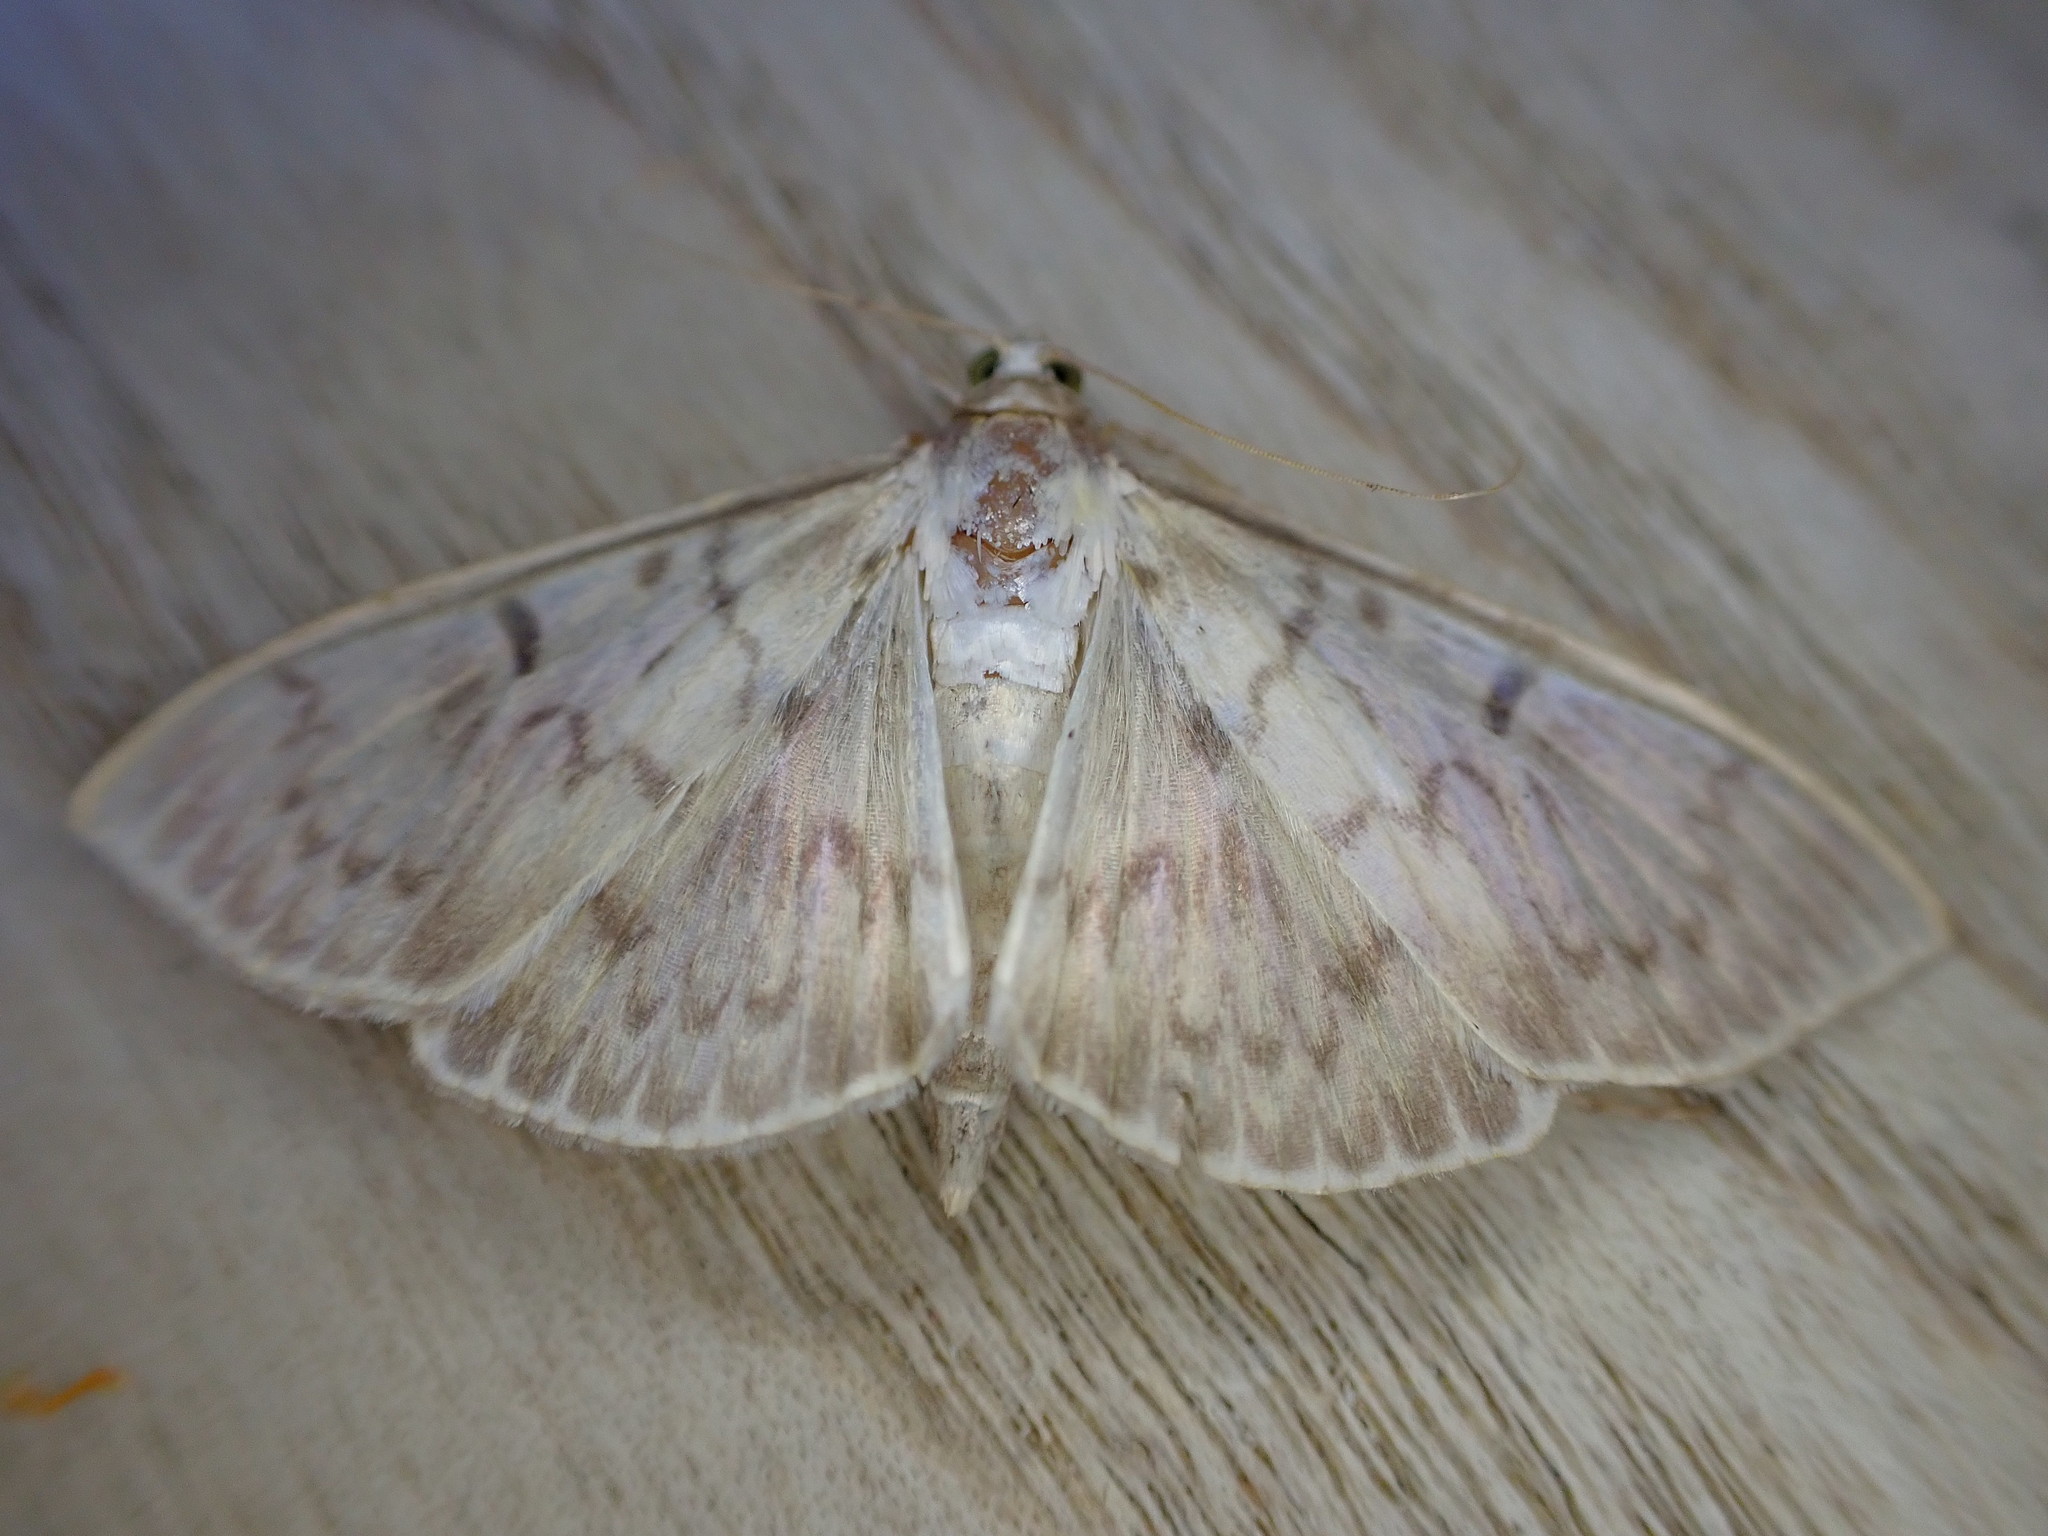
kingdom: Animalia
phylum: Arthropoda
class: Insecta
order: Lepidoptera
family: Crambidae
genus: Patania
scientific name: Patania ruralis
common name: Mother of pearl
